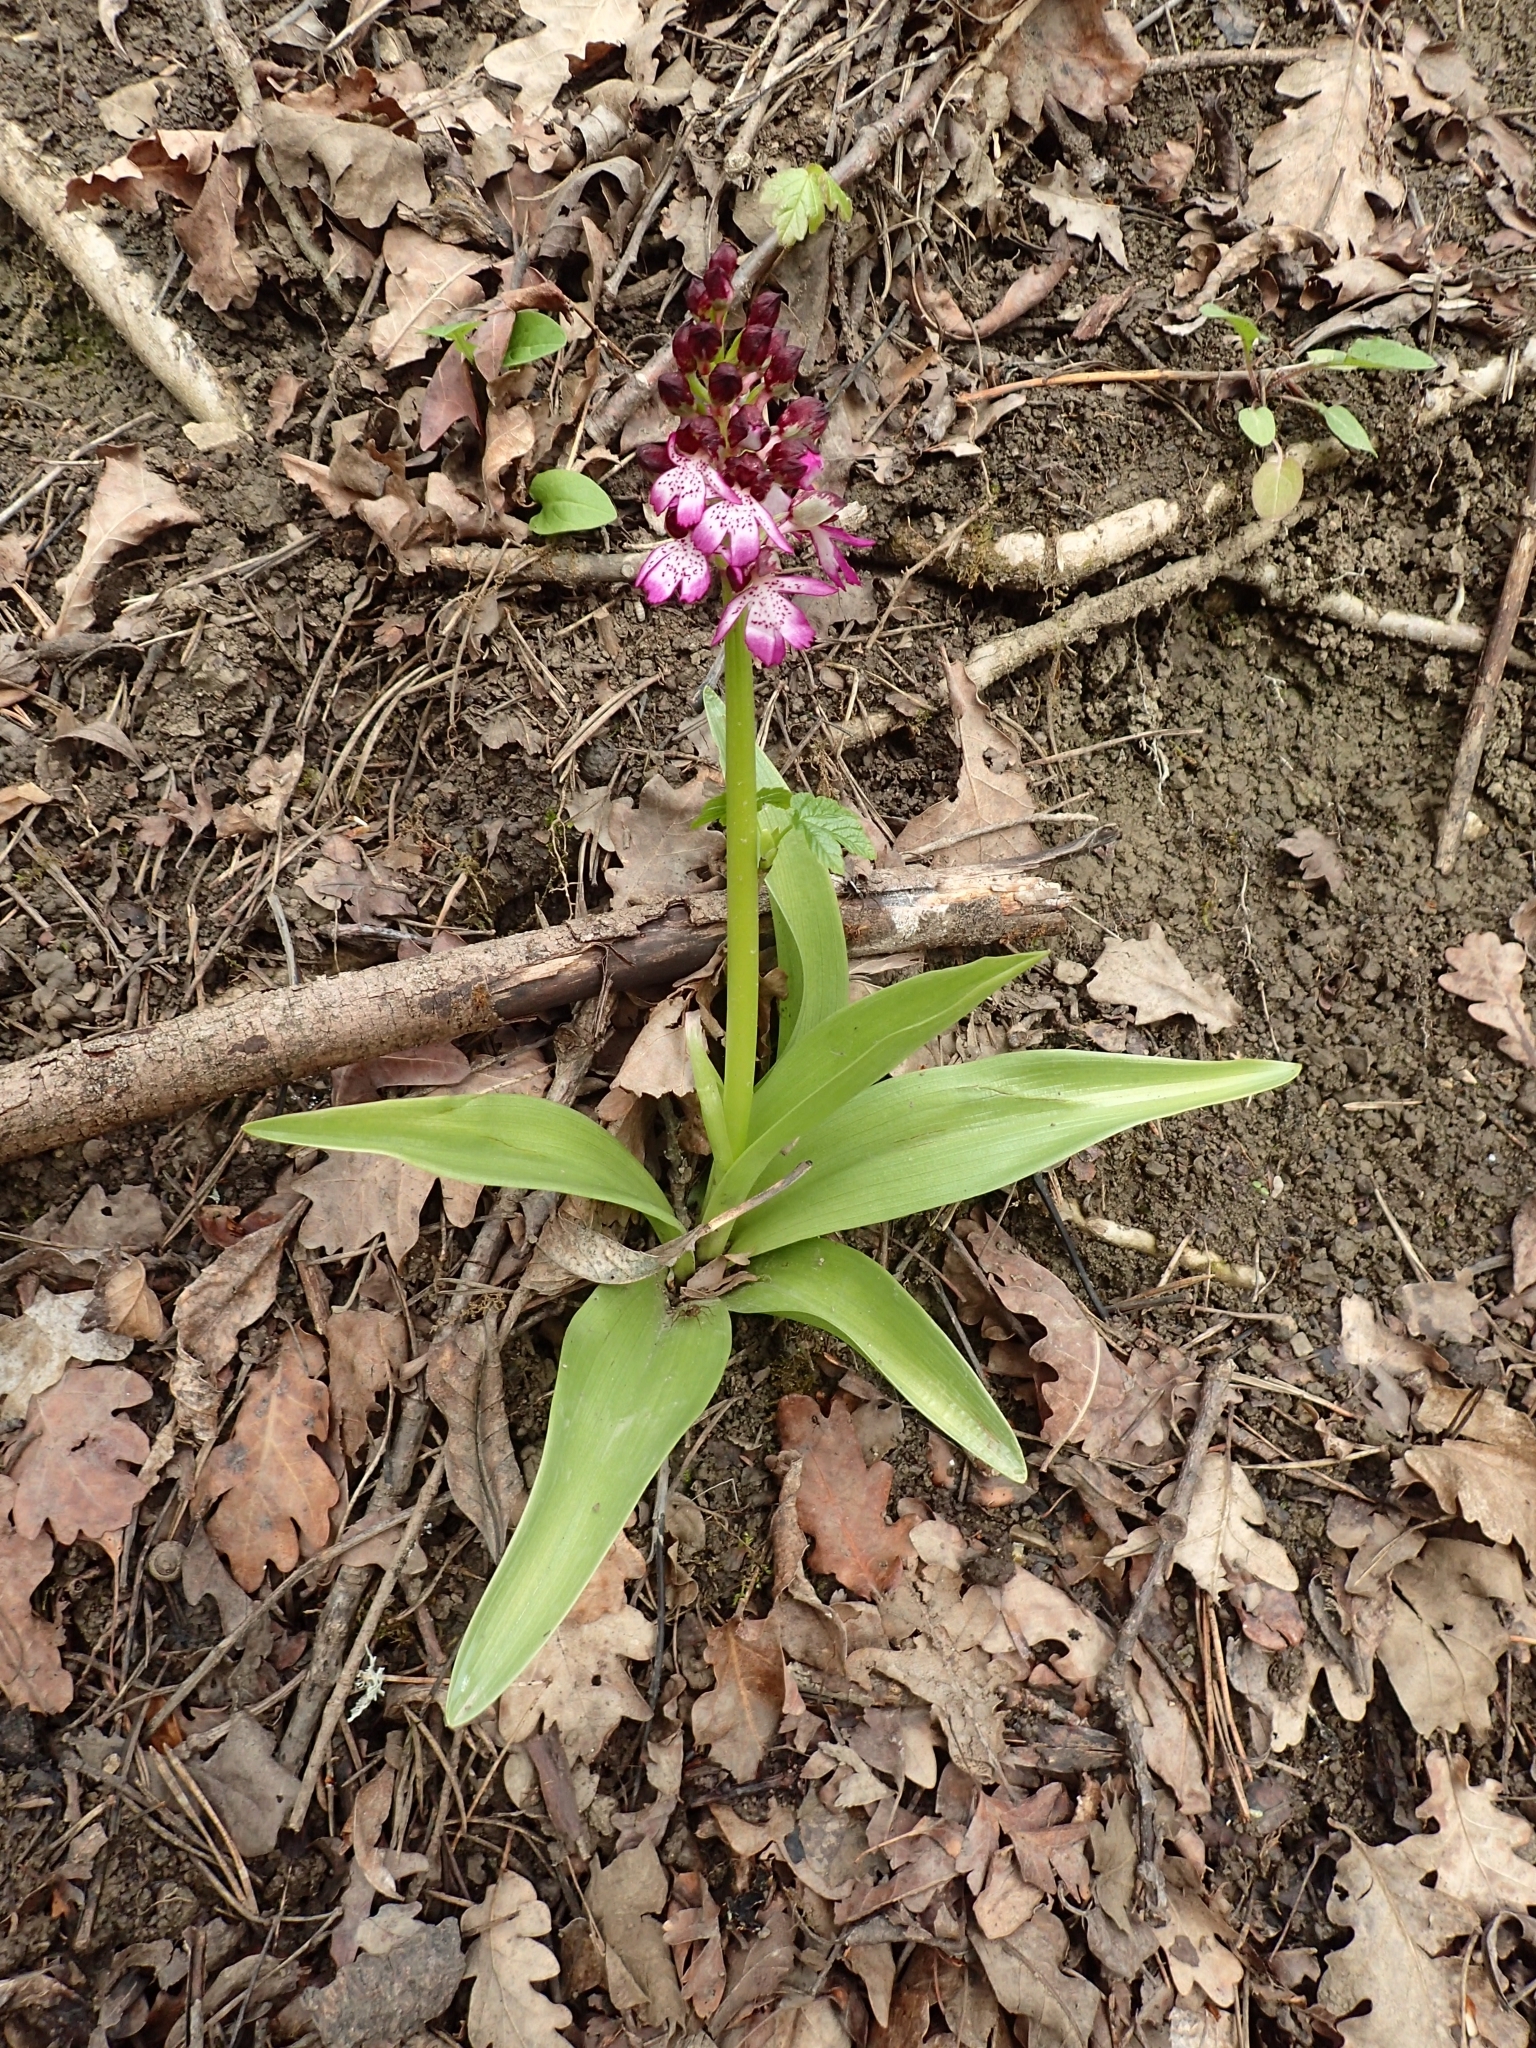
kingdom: Plantae
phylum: Tracheophyta
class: Liliopsida
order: Asparagales
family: Orchidaceae
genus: Orchis
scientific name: Orchis purpurea
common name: Lady orchid
